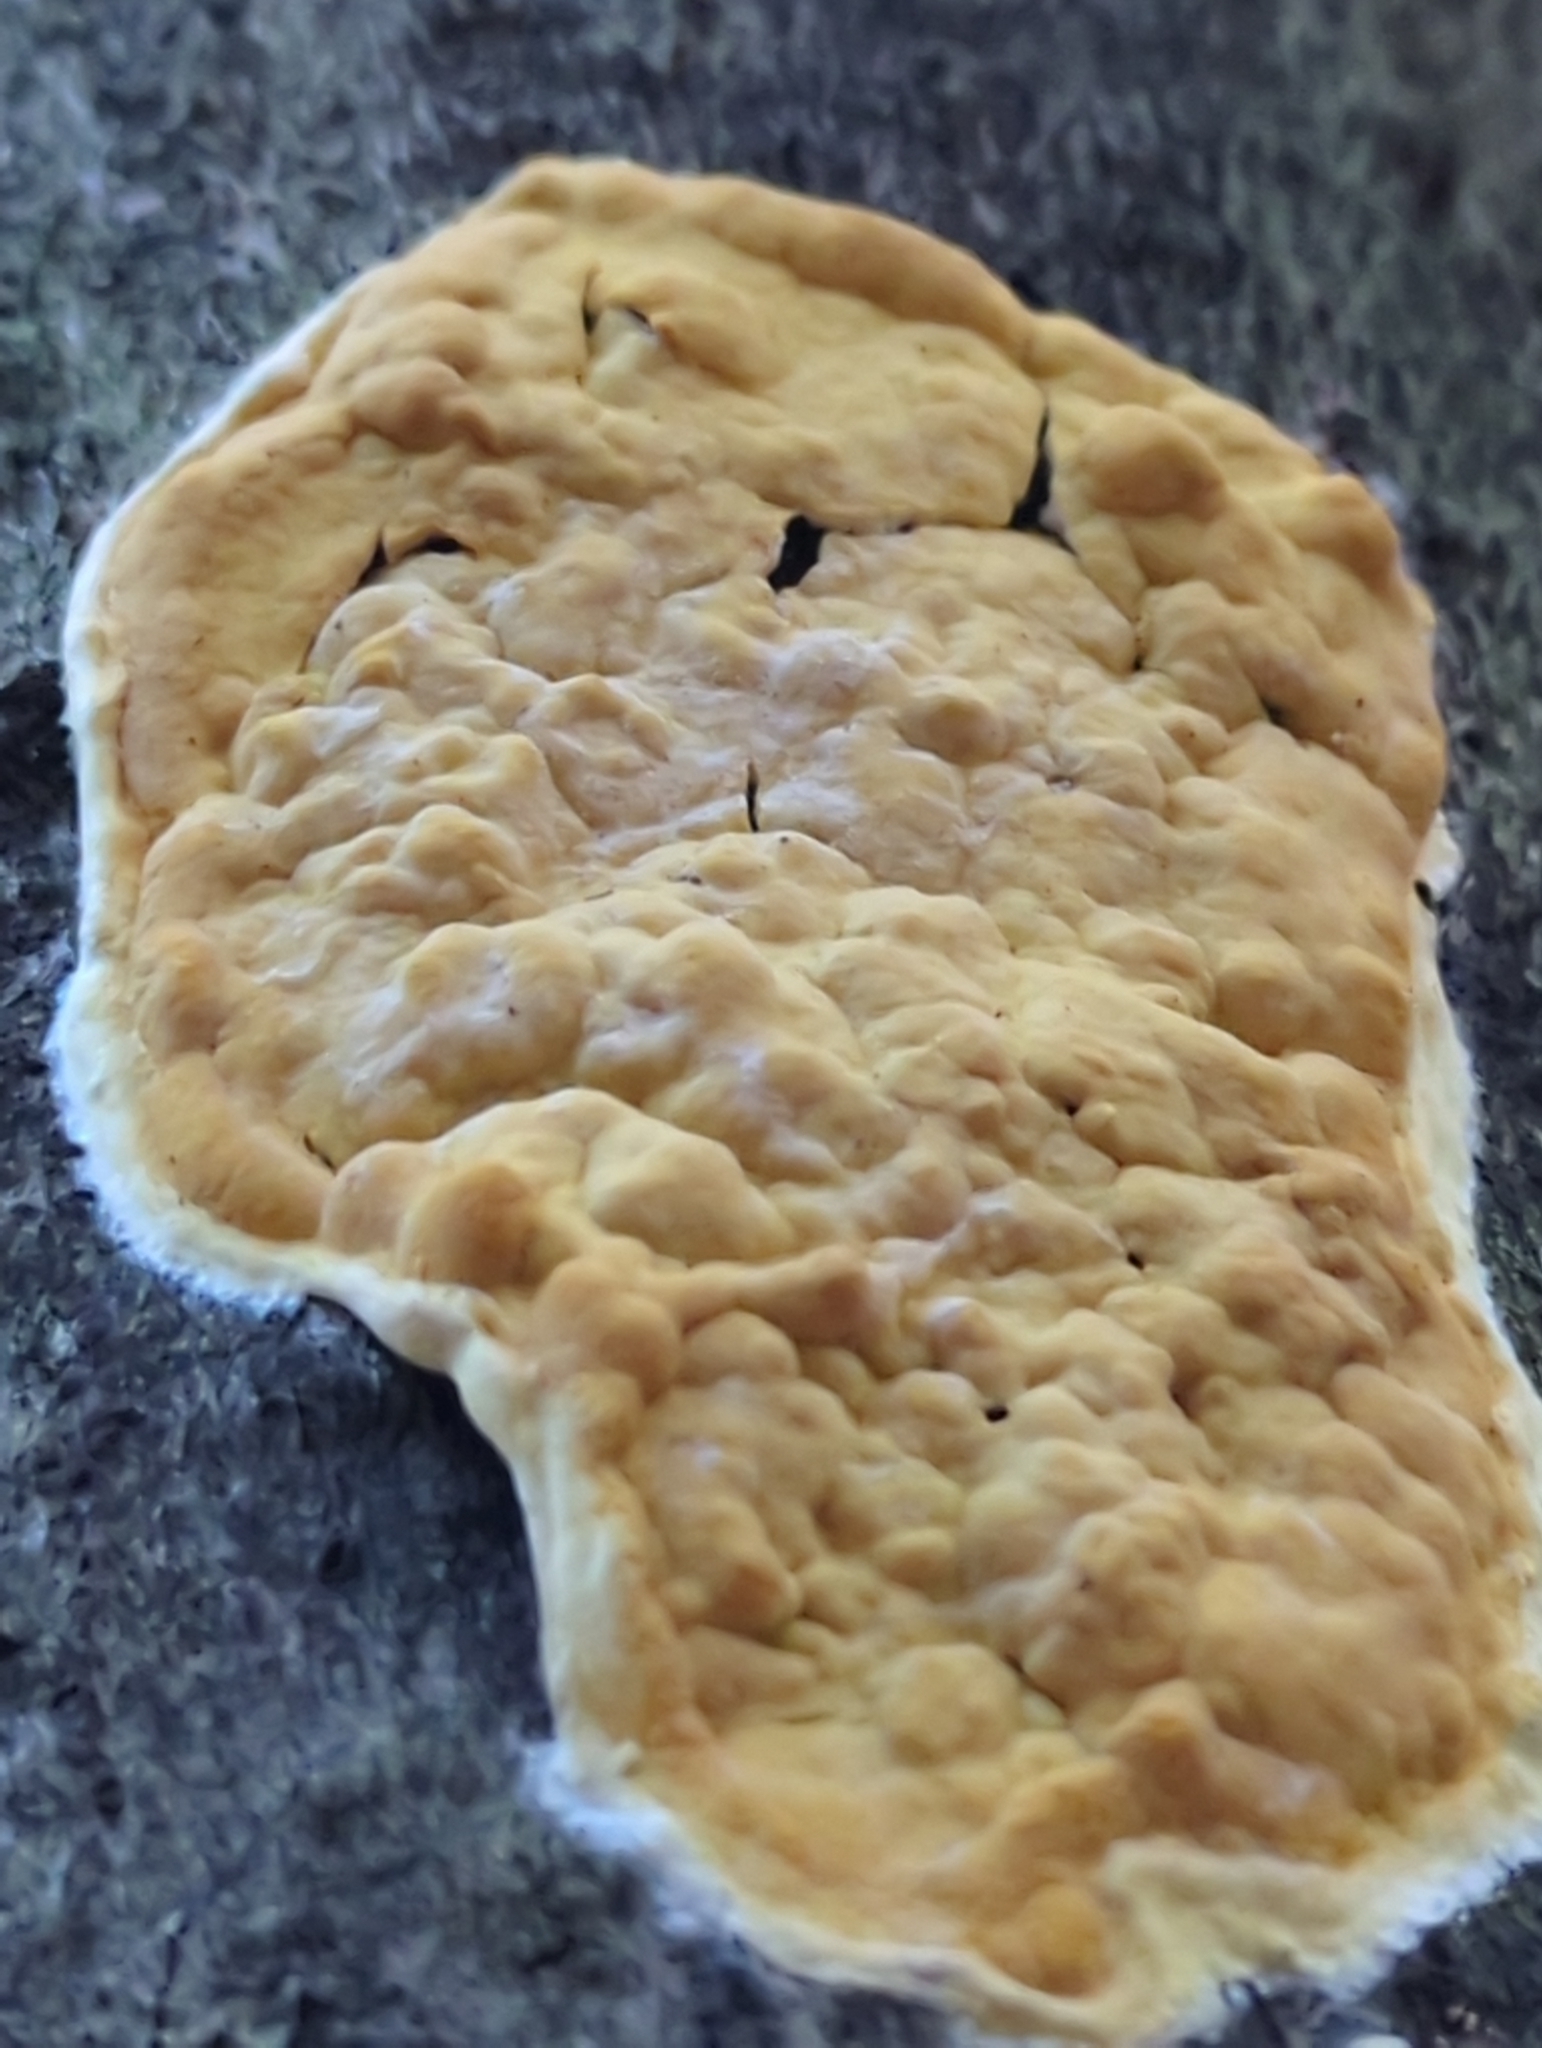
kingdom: Fungi
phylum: Ascomycota
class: Sordariomycetes
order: Hypocreales
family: Hypocreaceae
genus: Trichoderma
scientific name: Trichoderma sulphureum
